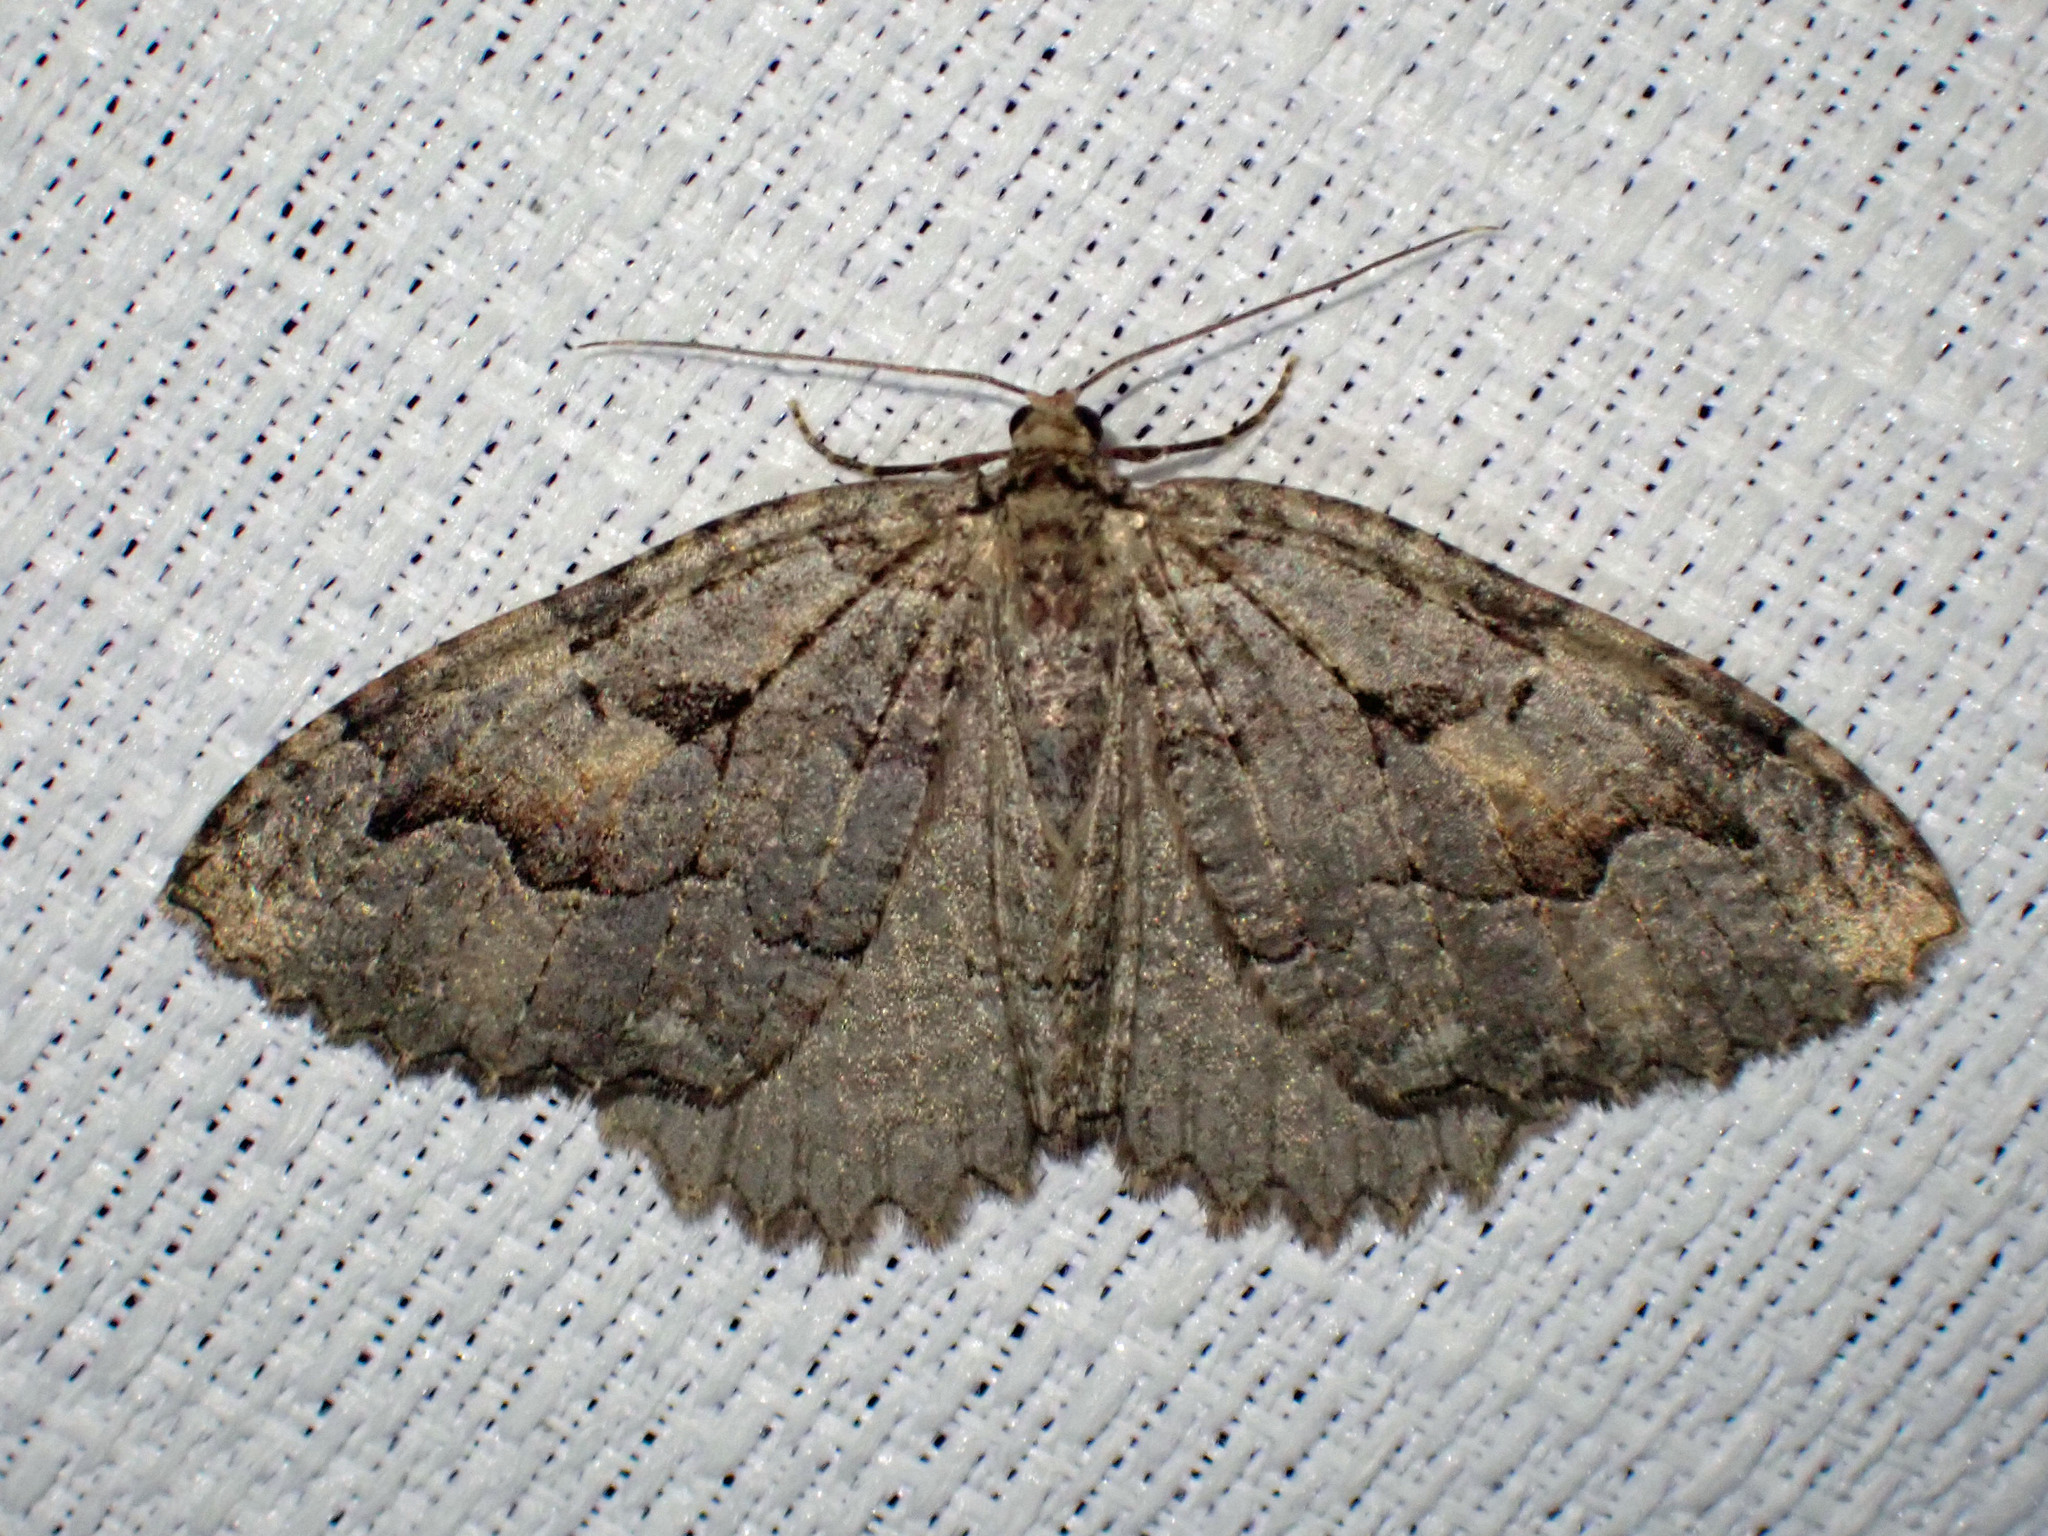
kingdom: Animalia
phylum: Arthropoda
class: Insecta
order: Lepidoptera
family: Geometridae
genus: Triphosa
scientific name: Triphosa haesitata
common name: Tissue moth
